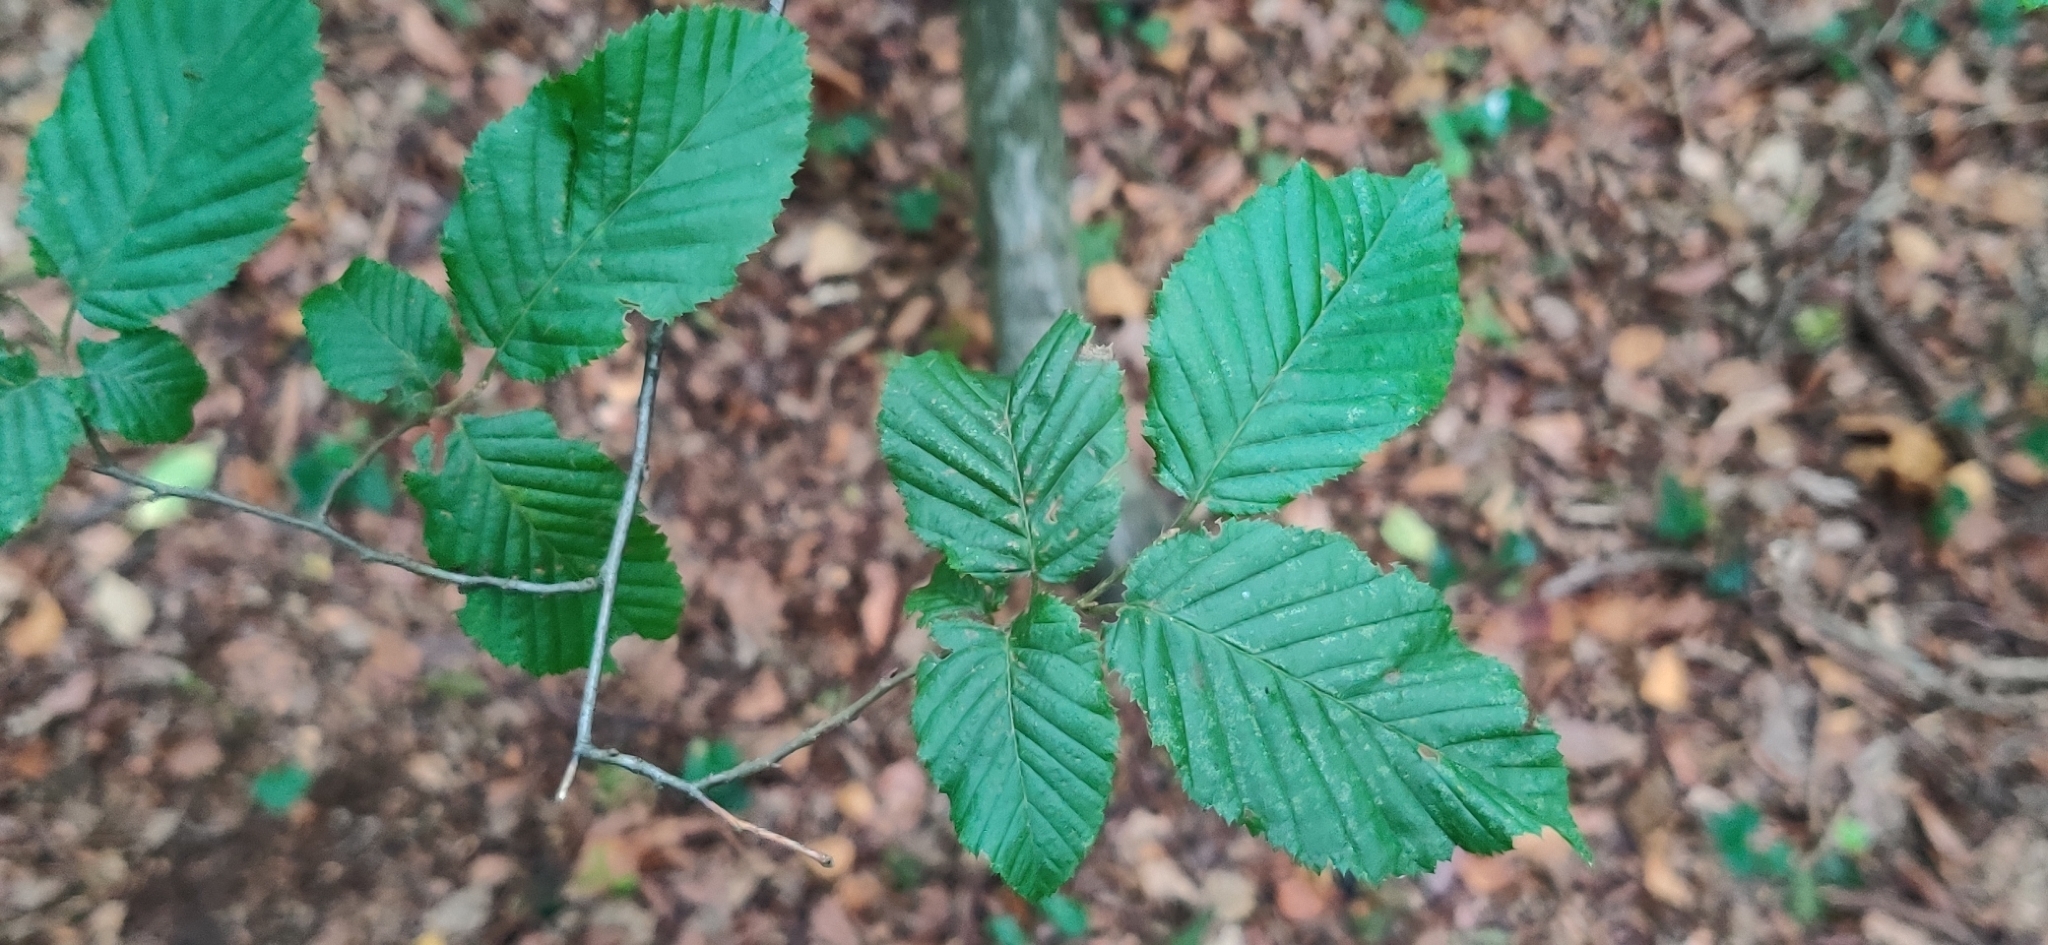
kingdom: Plantae
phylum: Tracheophyta
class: Magnoliopsida
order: Fagales
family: Betulaceae
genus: Carpinus
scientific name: Carpinus betulus
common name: Hornbeam
